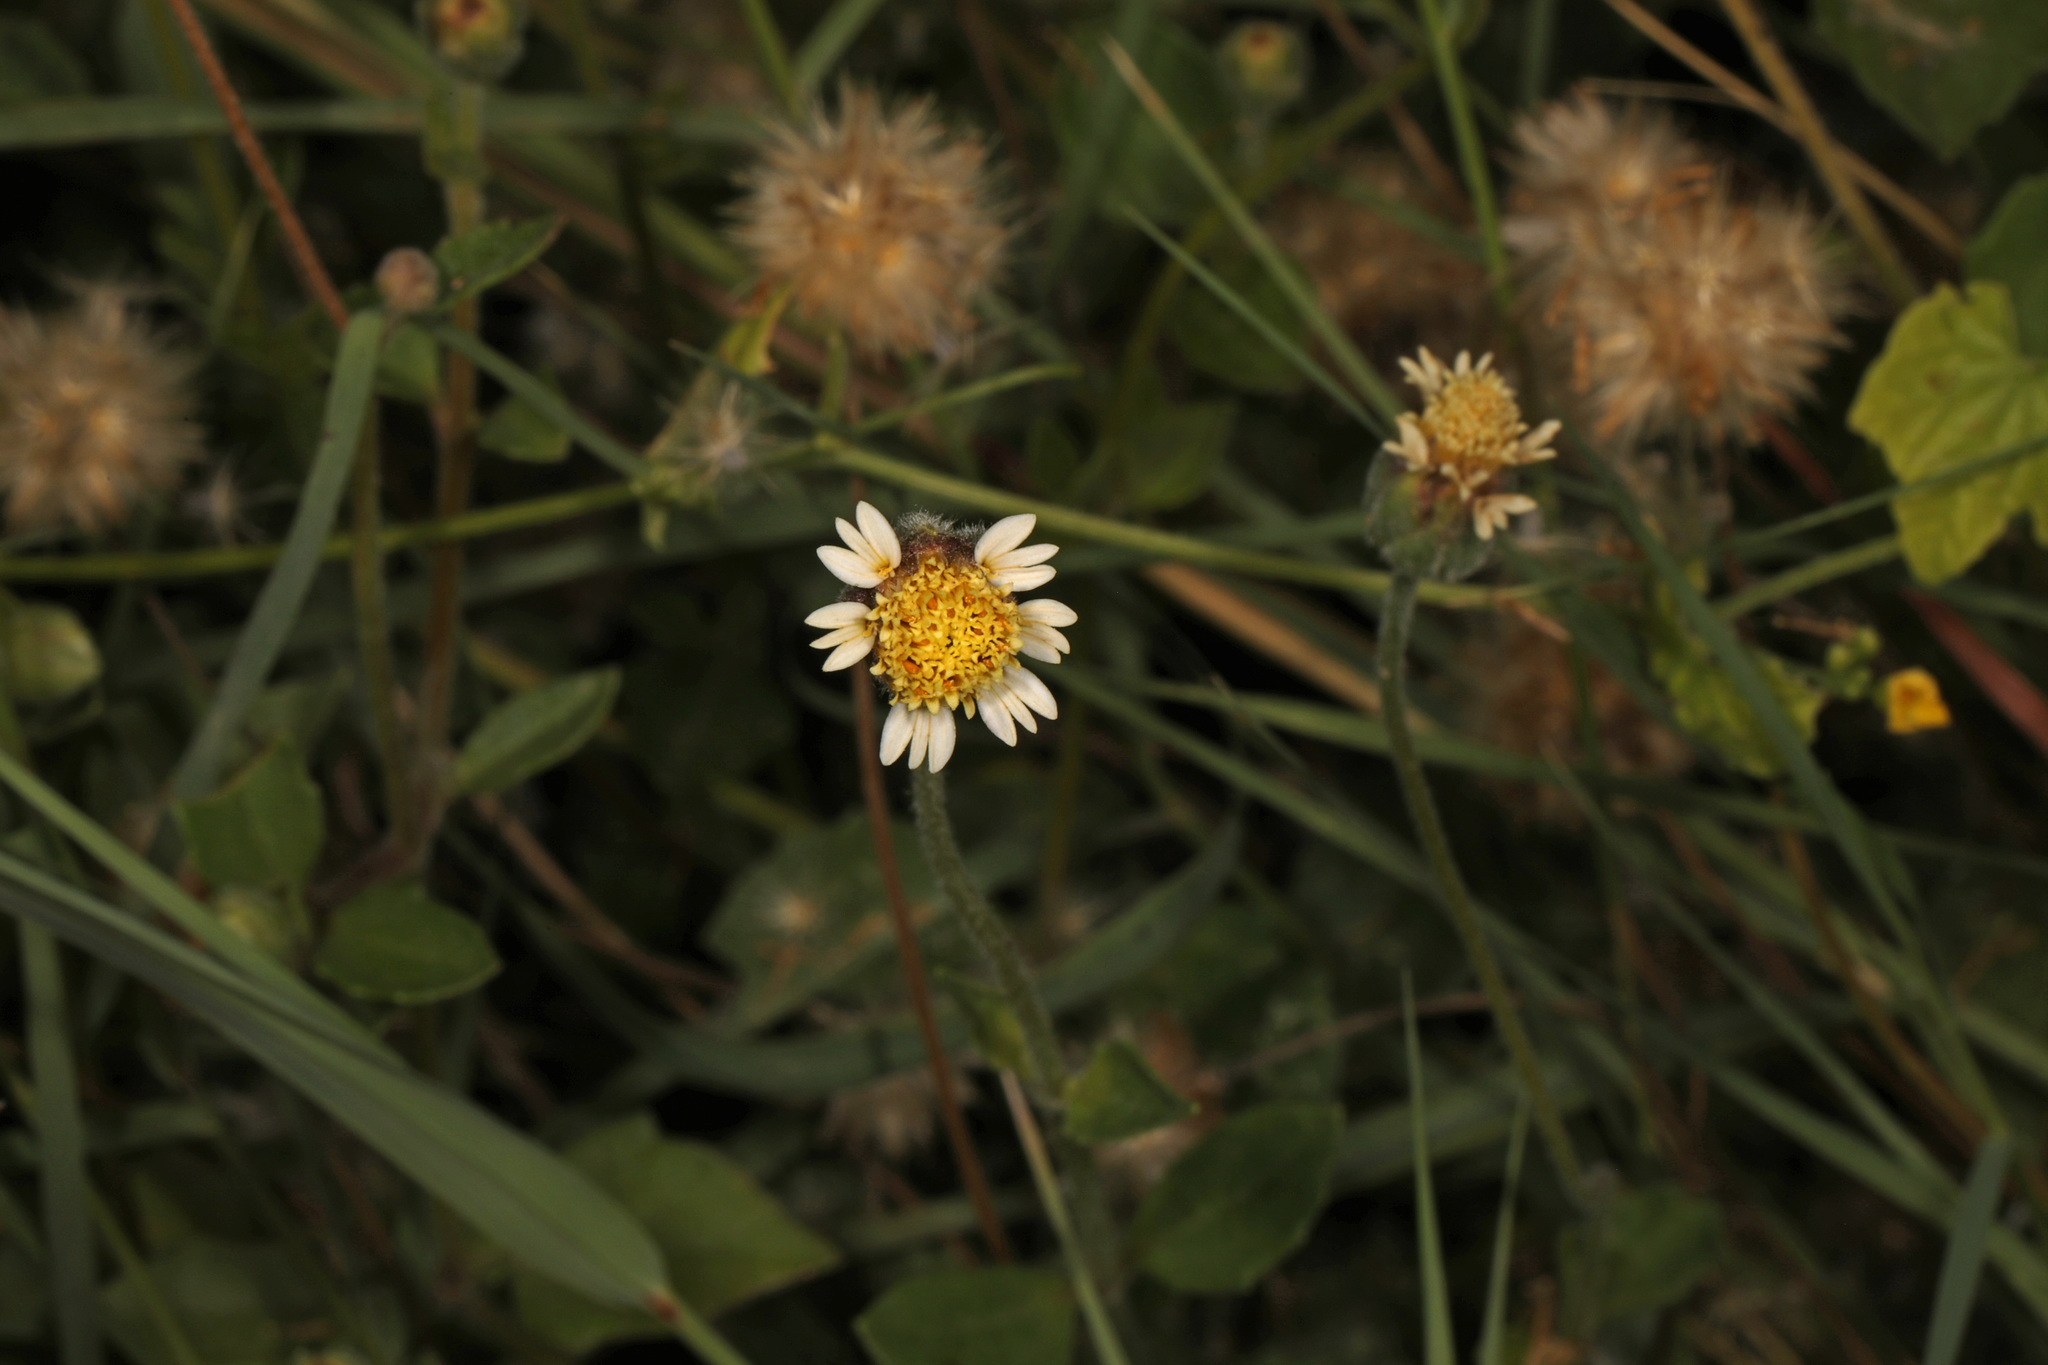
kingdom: Plantae
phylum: Tracheophyta
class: Magnoliopsida
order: Asterales
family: Asteraceae
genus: Tridax
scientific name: Tridax procumbens
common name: Coatbuttons
